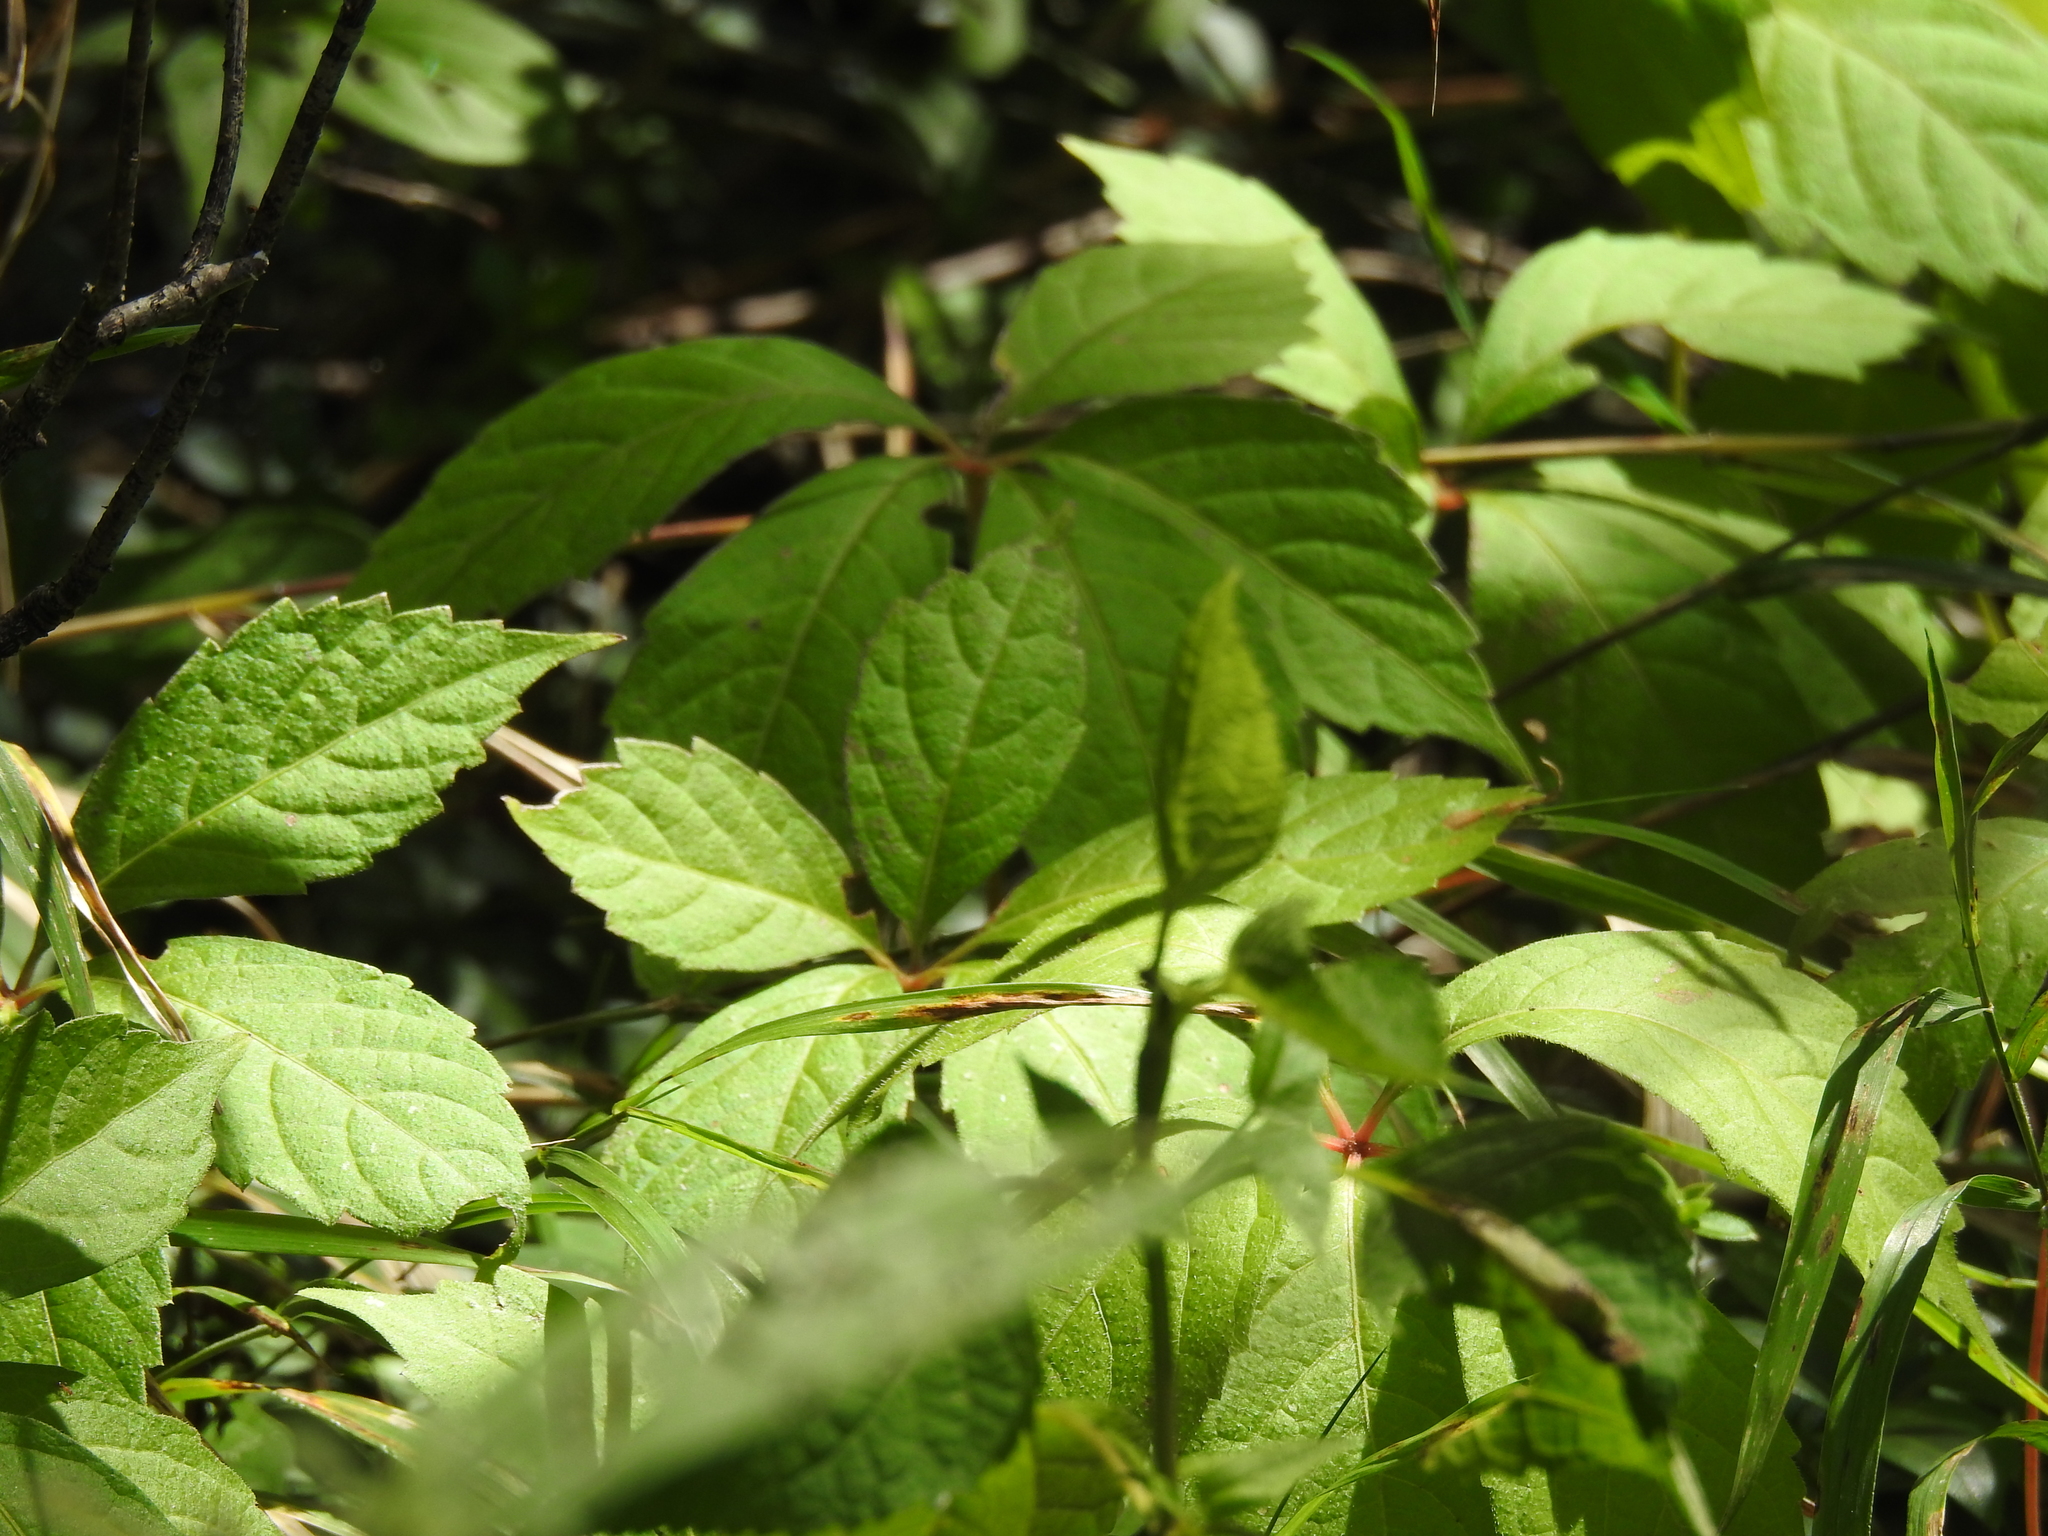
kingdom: Plantae
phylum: Tracheophyta
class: Magnoliopsida
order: Vitales
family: Vitaceae
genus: Parthenocissus
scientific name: Parthenocissus quinquefolia
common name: Virginia-creeper
